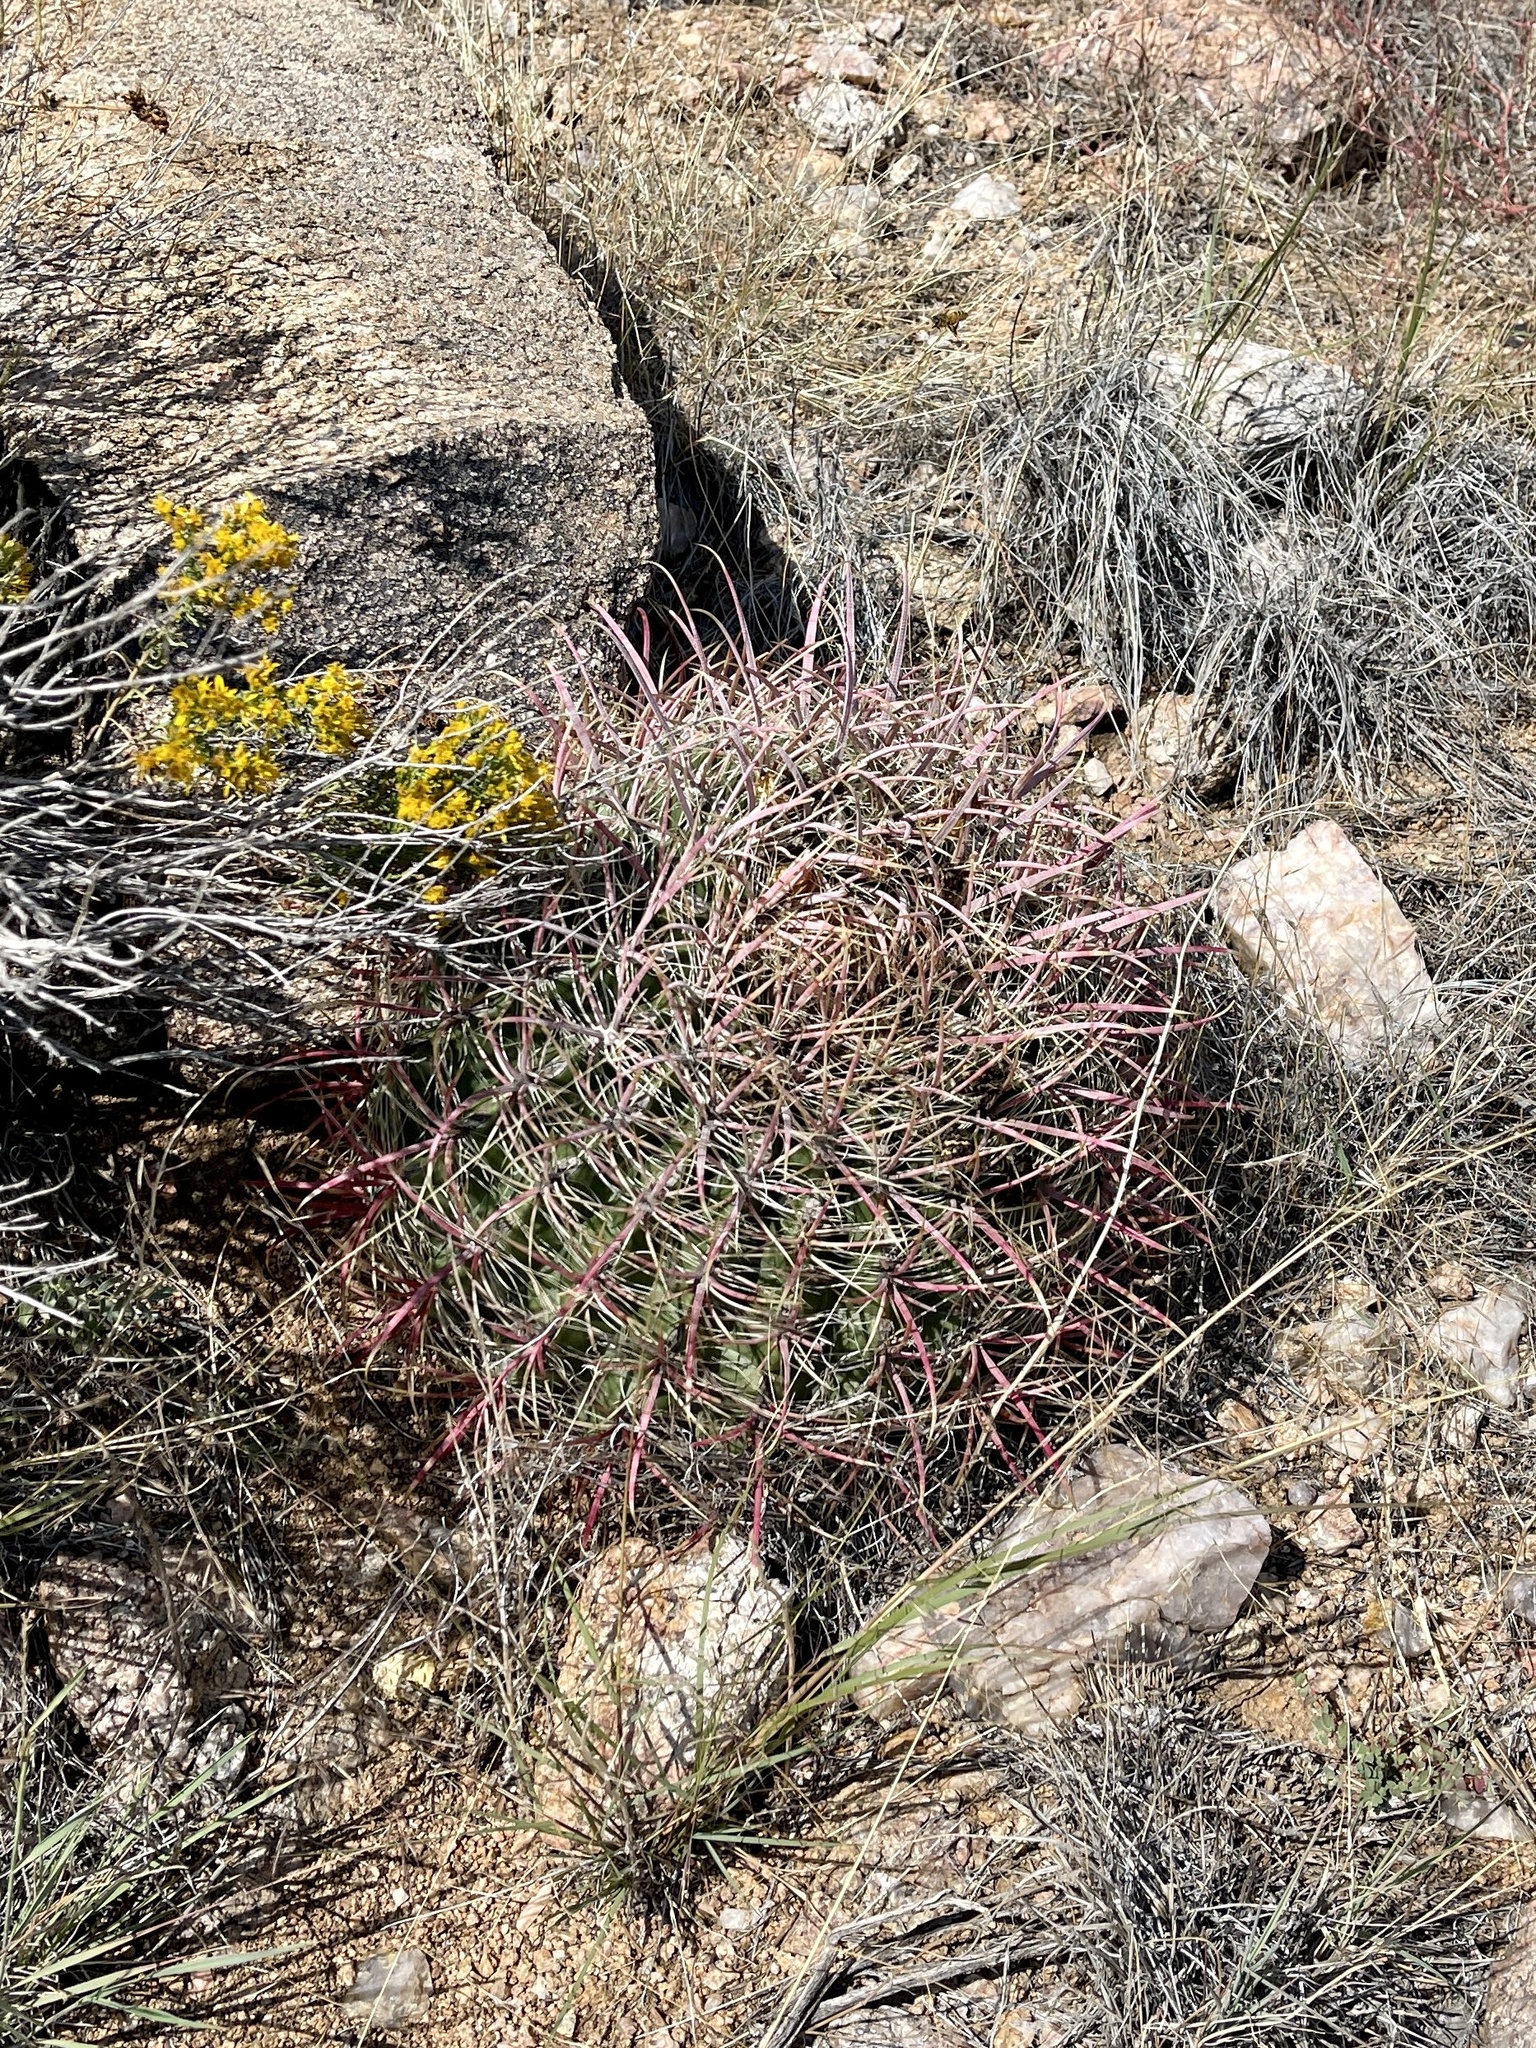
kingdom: Plantae
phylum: Tracheophyta
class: Magnoliopsida
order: Caryophyllales
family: Cactaceae
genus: Ferocactus
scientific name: Ferocactus cylindraceus
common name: California barrel cactus
